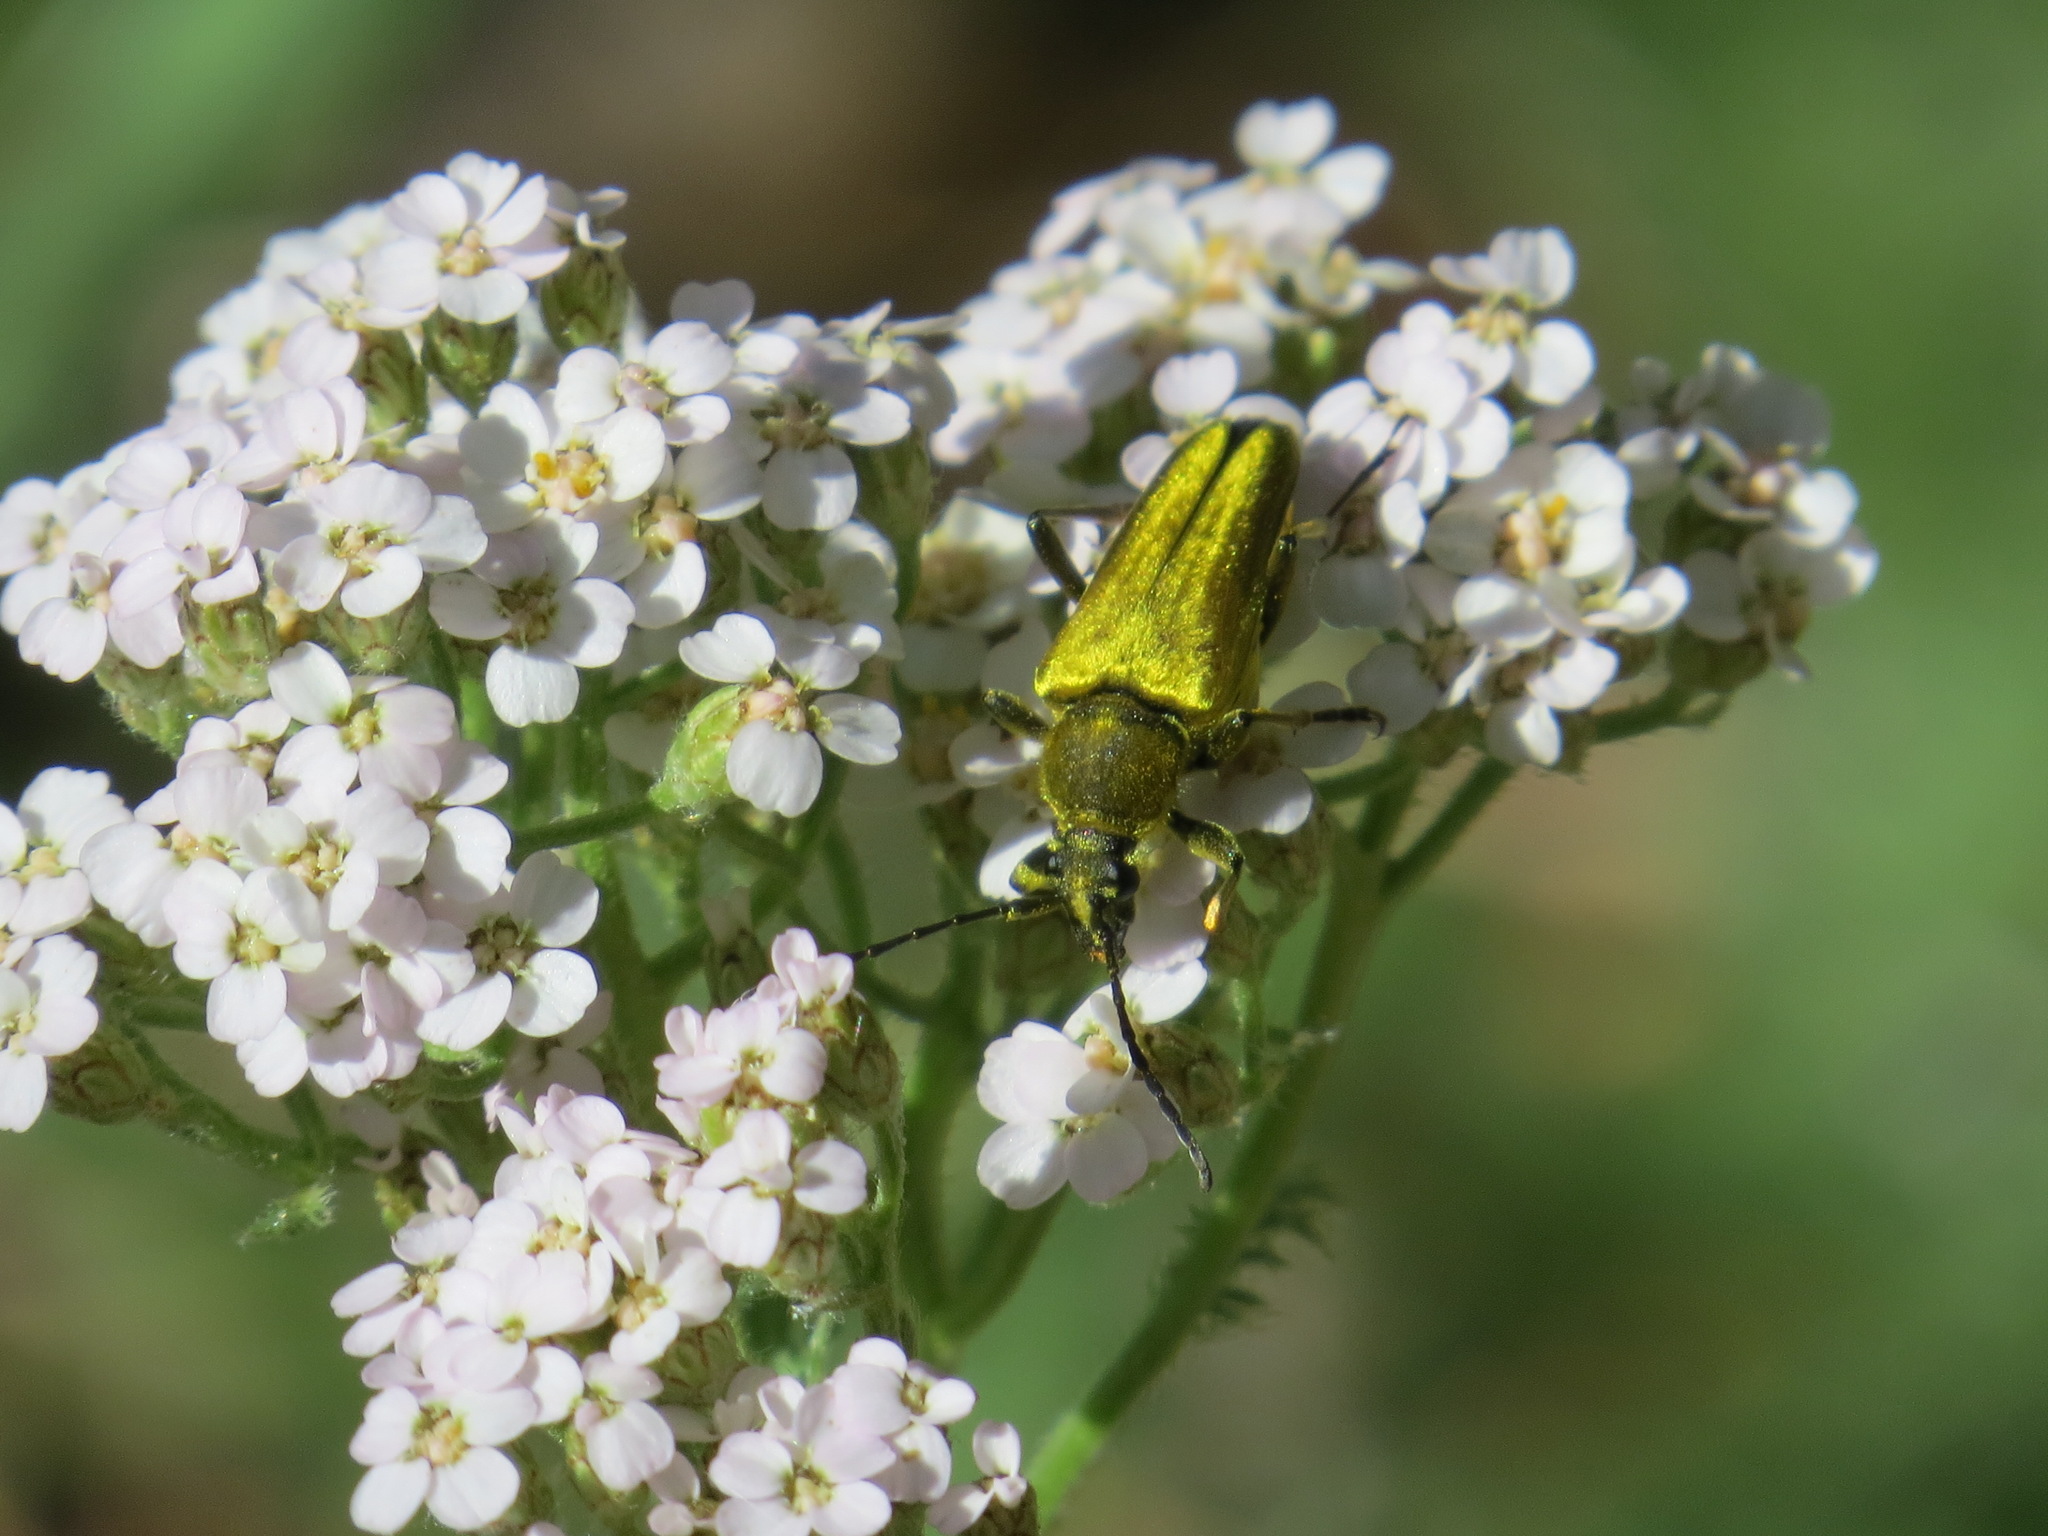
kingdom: Animalia
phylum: Arthropoda
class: Insecta
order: Coleoptera
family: Cerambycidae
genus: Cosmosalia
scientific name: Cosmosalia chrysocoma
